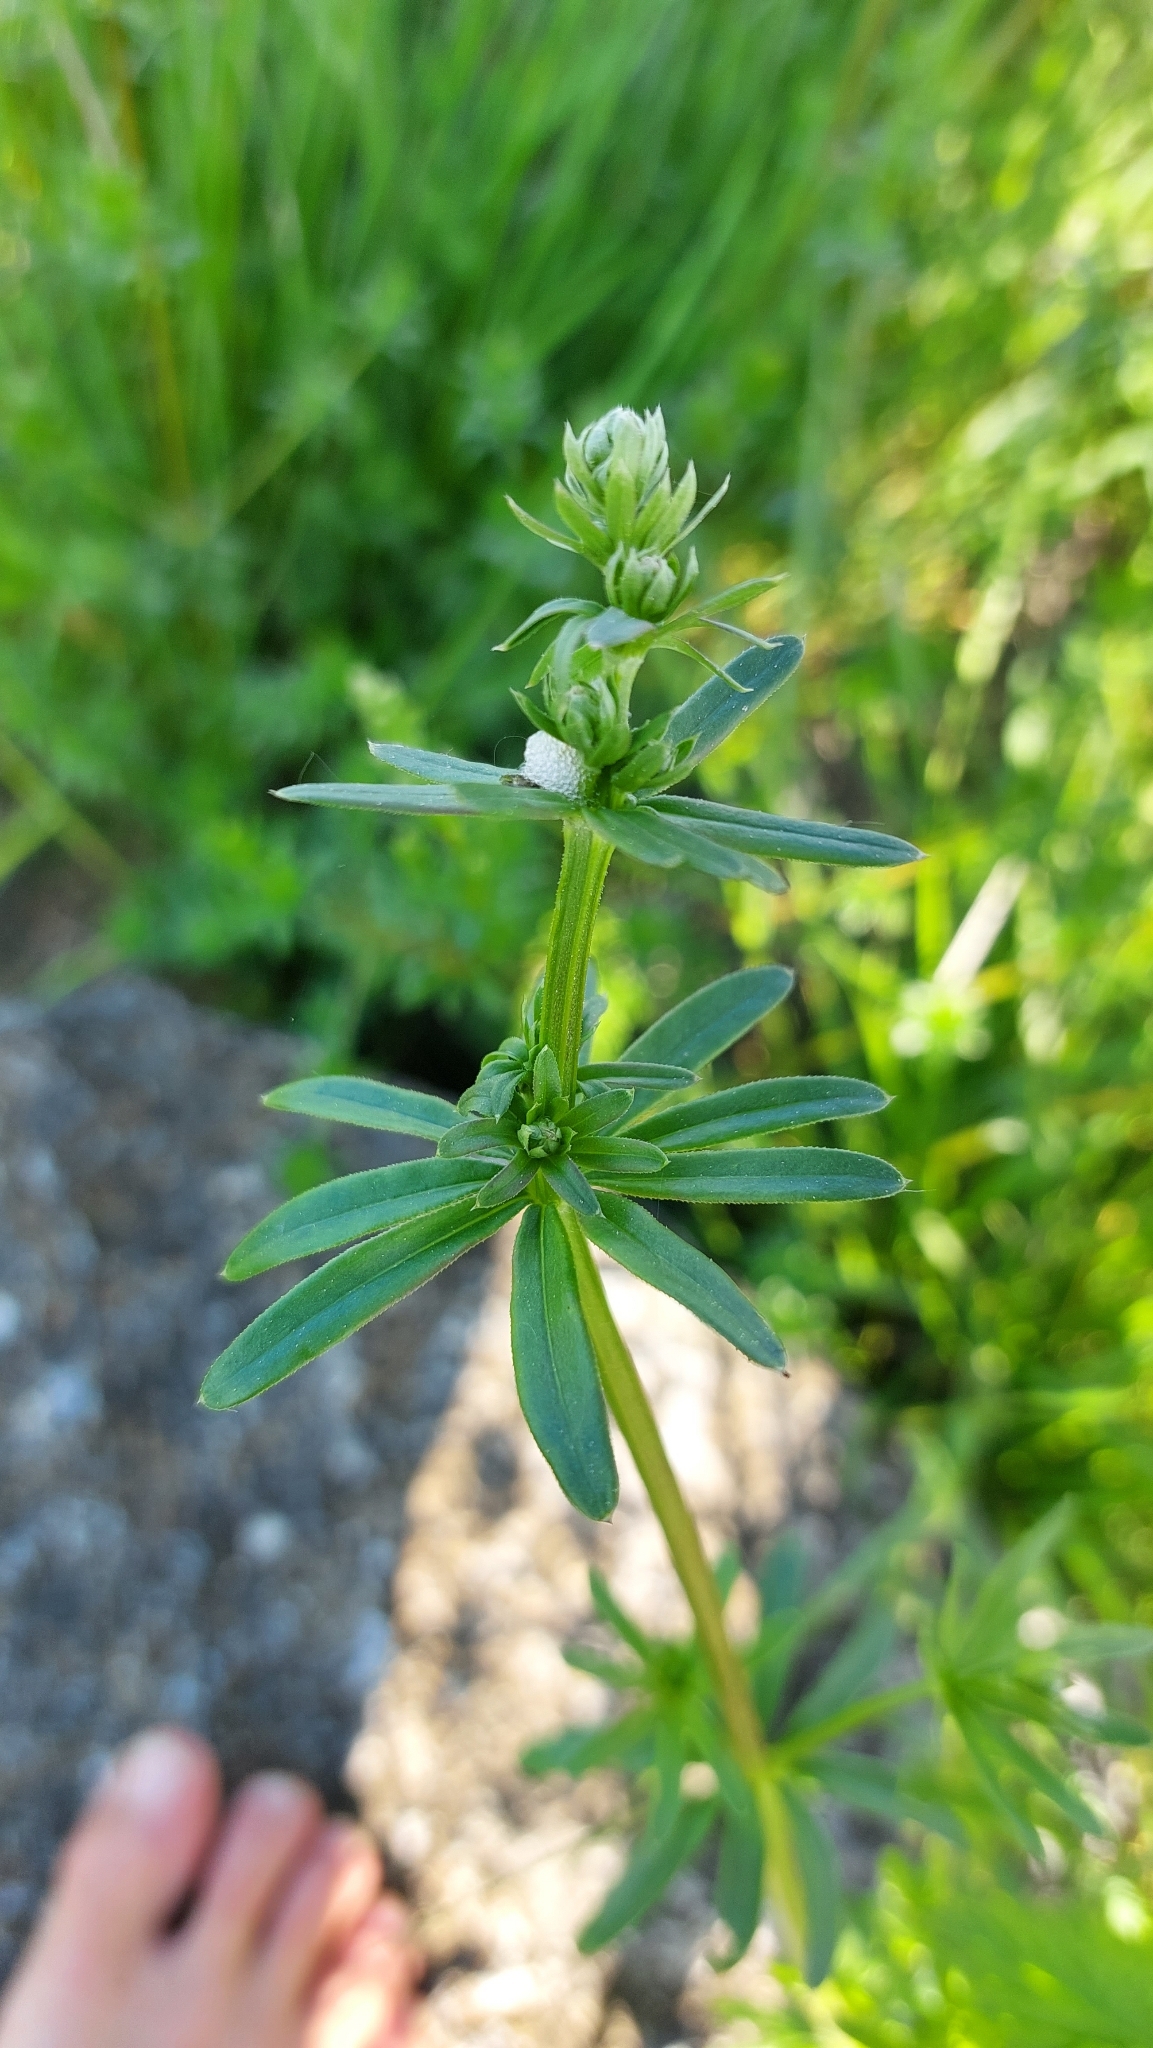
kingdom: Plantae
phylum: Tracheophyta
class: Magnoliopsida
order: Gentianales
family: Rubiaceae
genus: Galium
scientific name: Galium album
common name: White bedstraw
